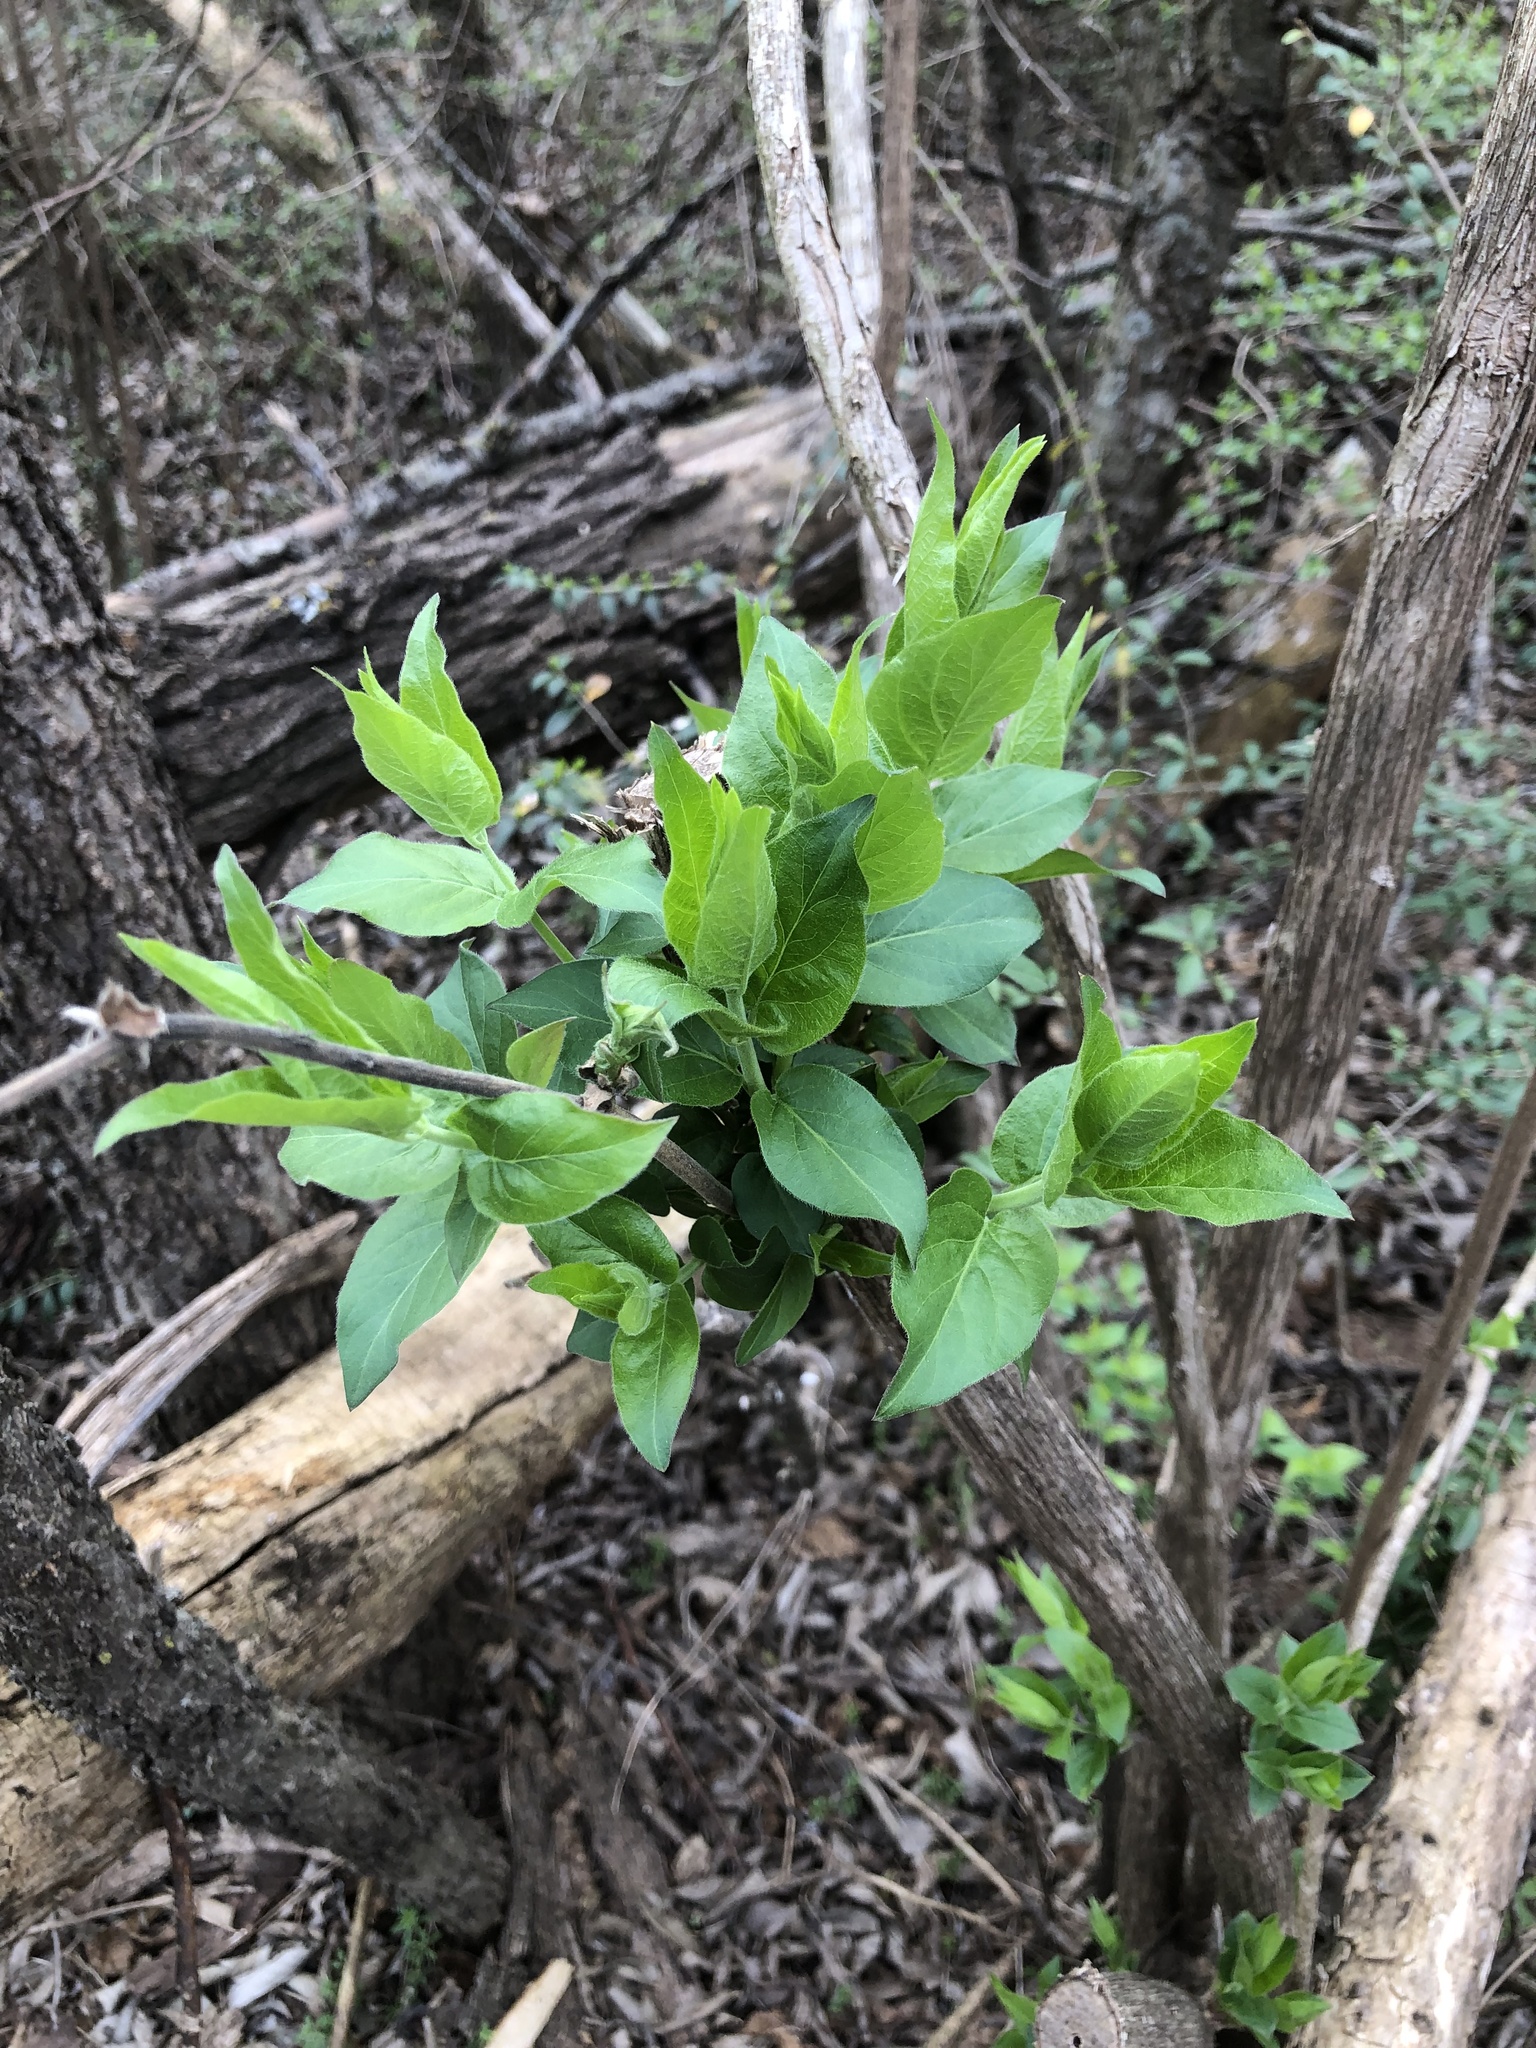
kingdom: Plantae
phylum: Tracheophyta
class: Magnoliopsida
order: Dipsacales
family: Caprifoliaceae
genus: Lonicera
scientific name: Lonicera maackii
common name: Amur honeysuckle
